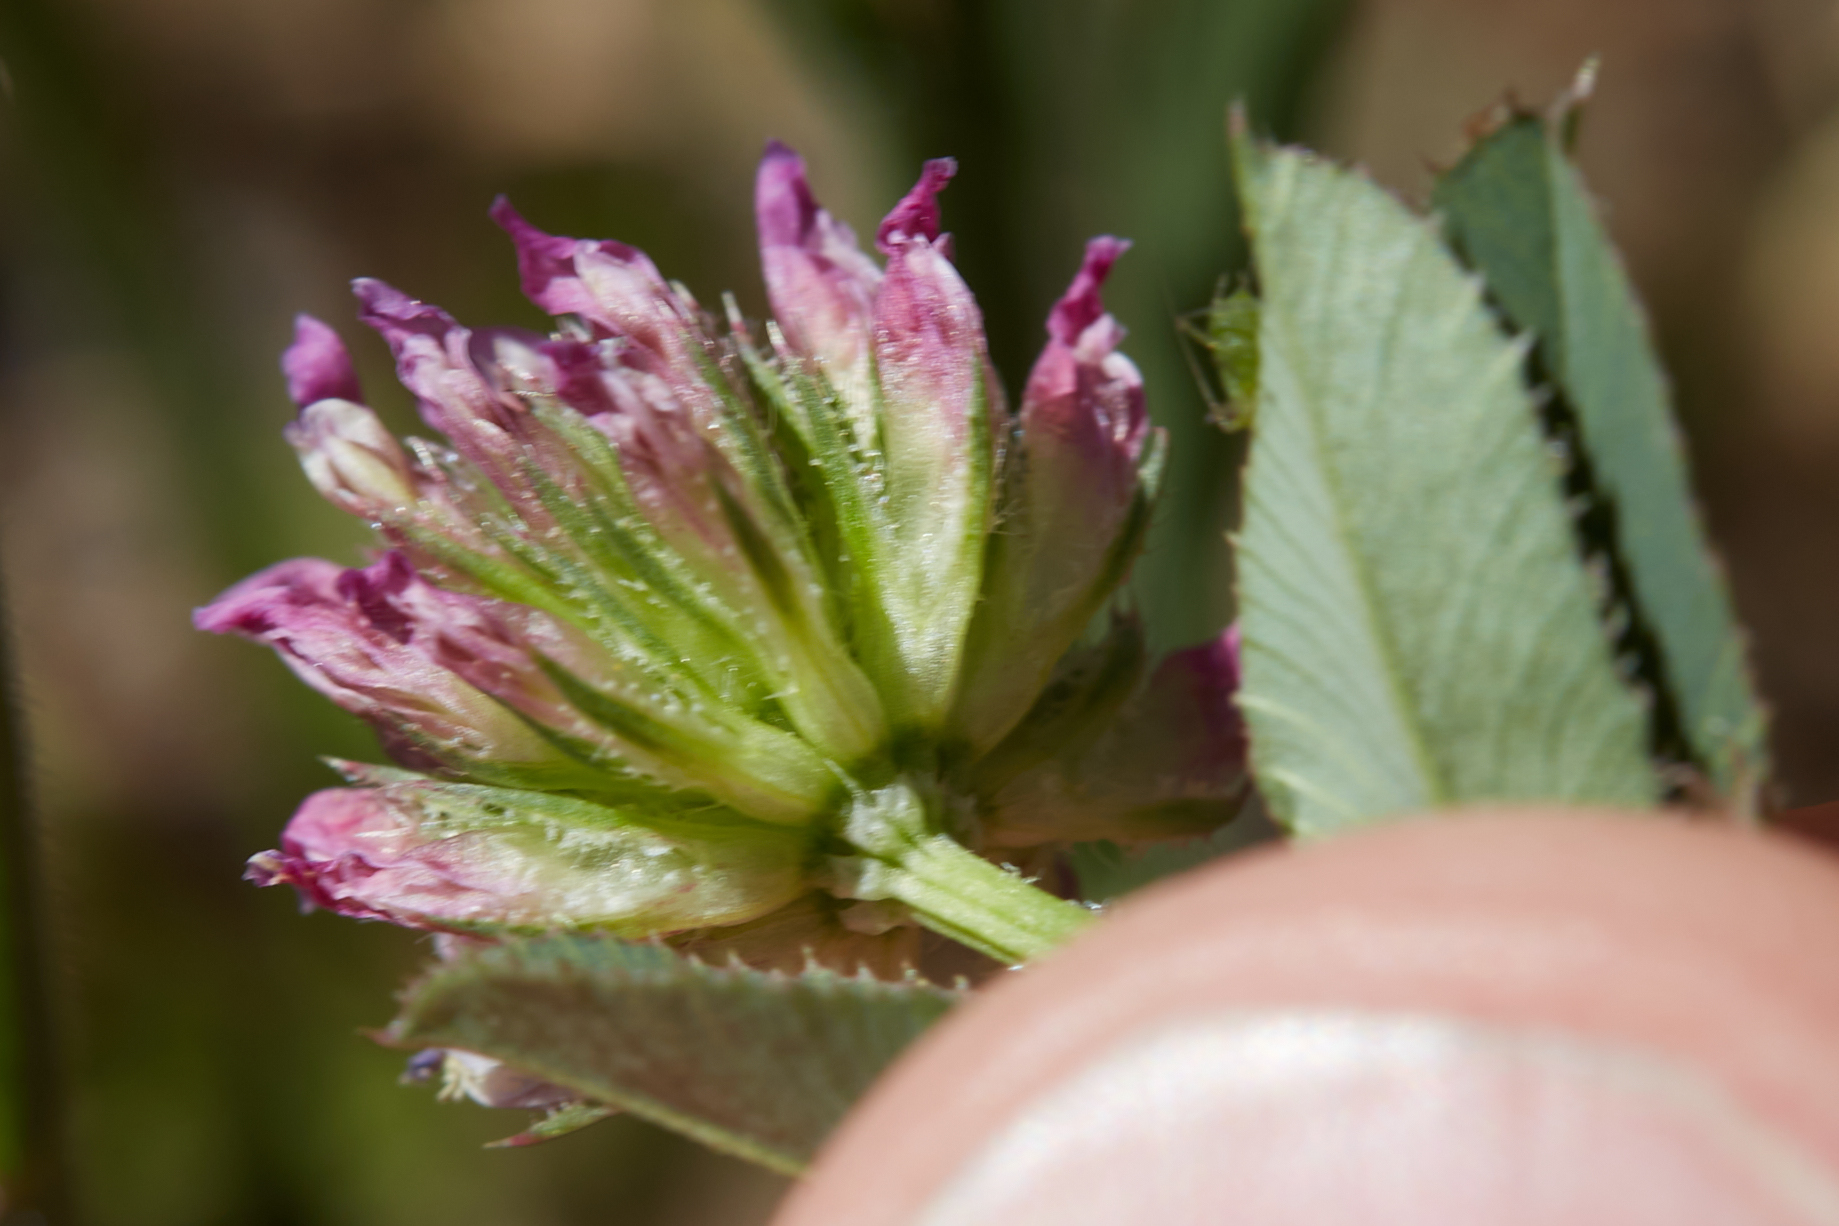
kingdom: Plantae
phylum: Tracheophyta
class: Magnoliopsida
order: Fabales
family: Fabaceae
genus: Trifolium
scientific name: Trifolium ciliolatum
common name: Foothill clover
